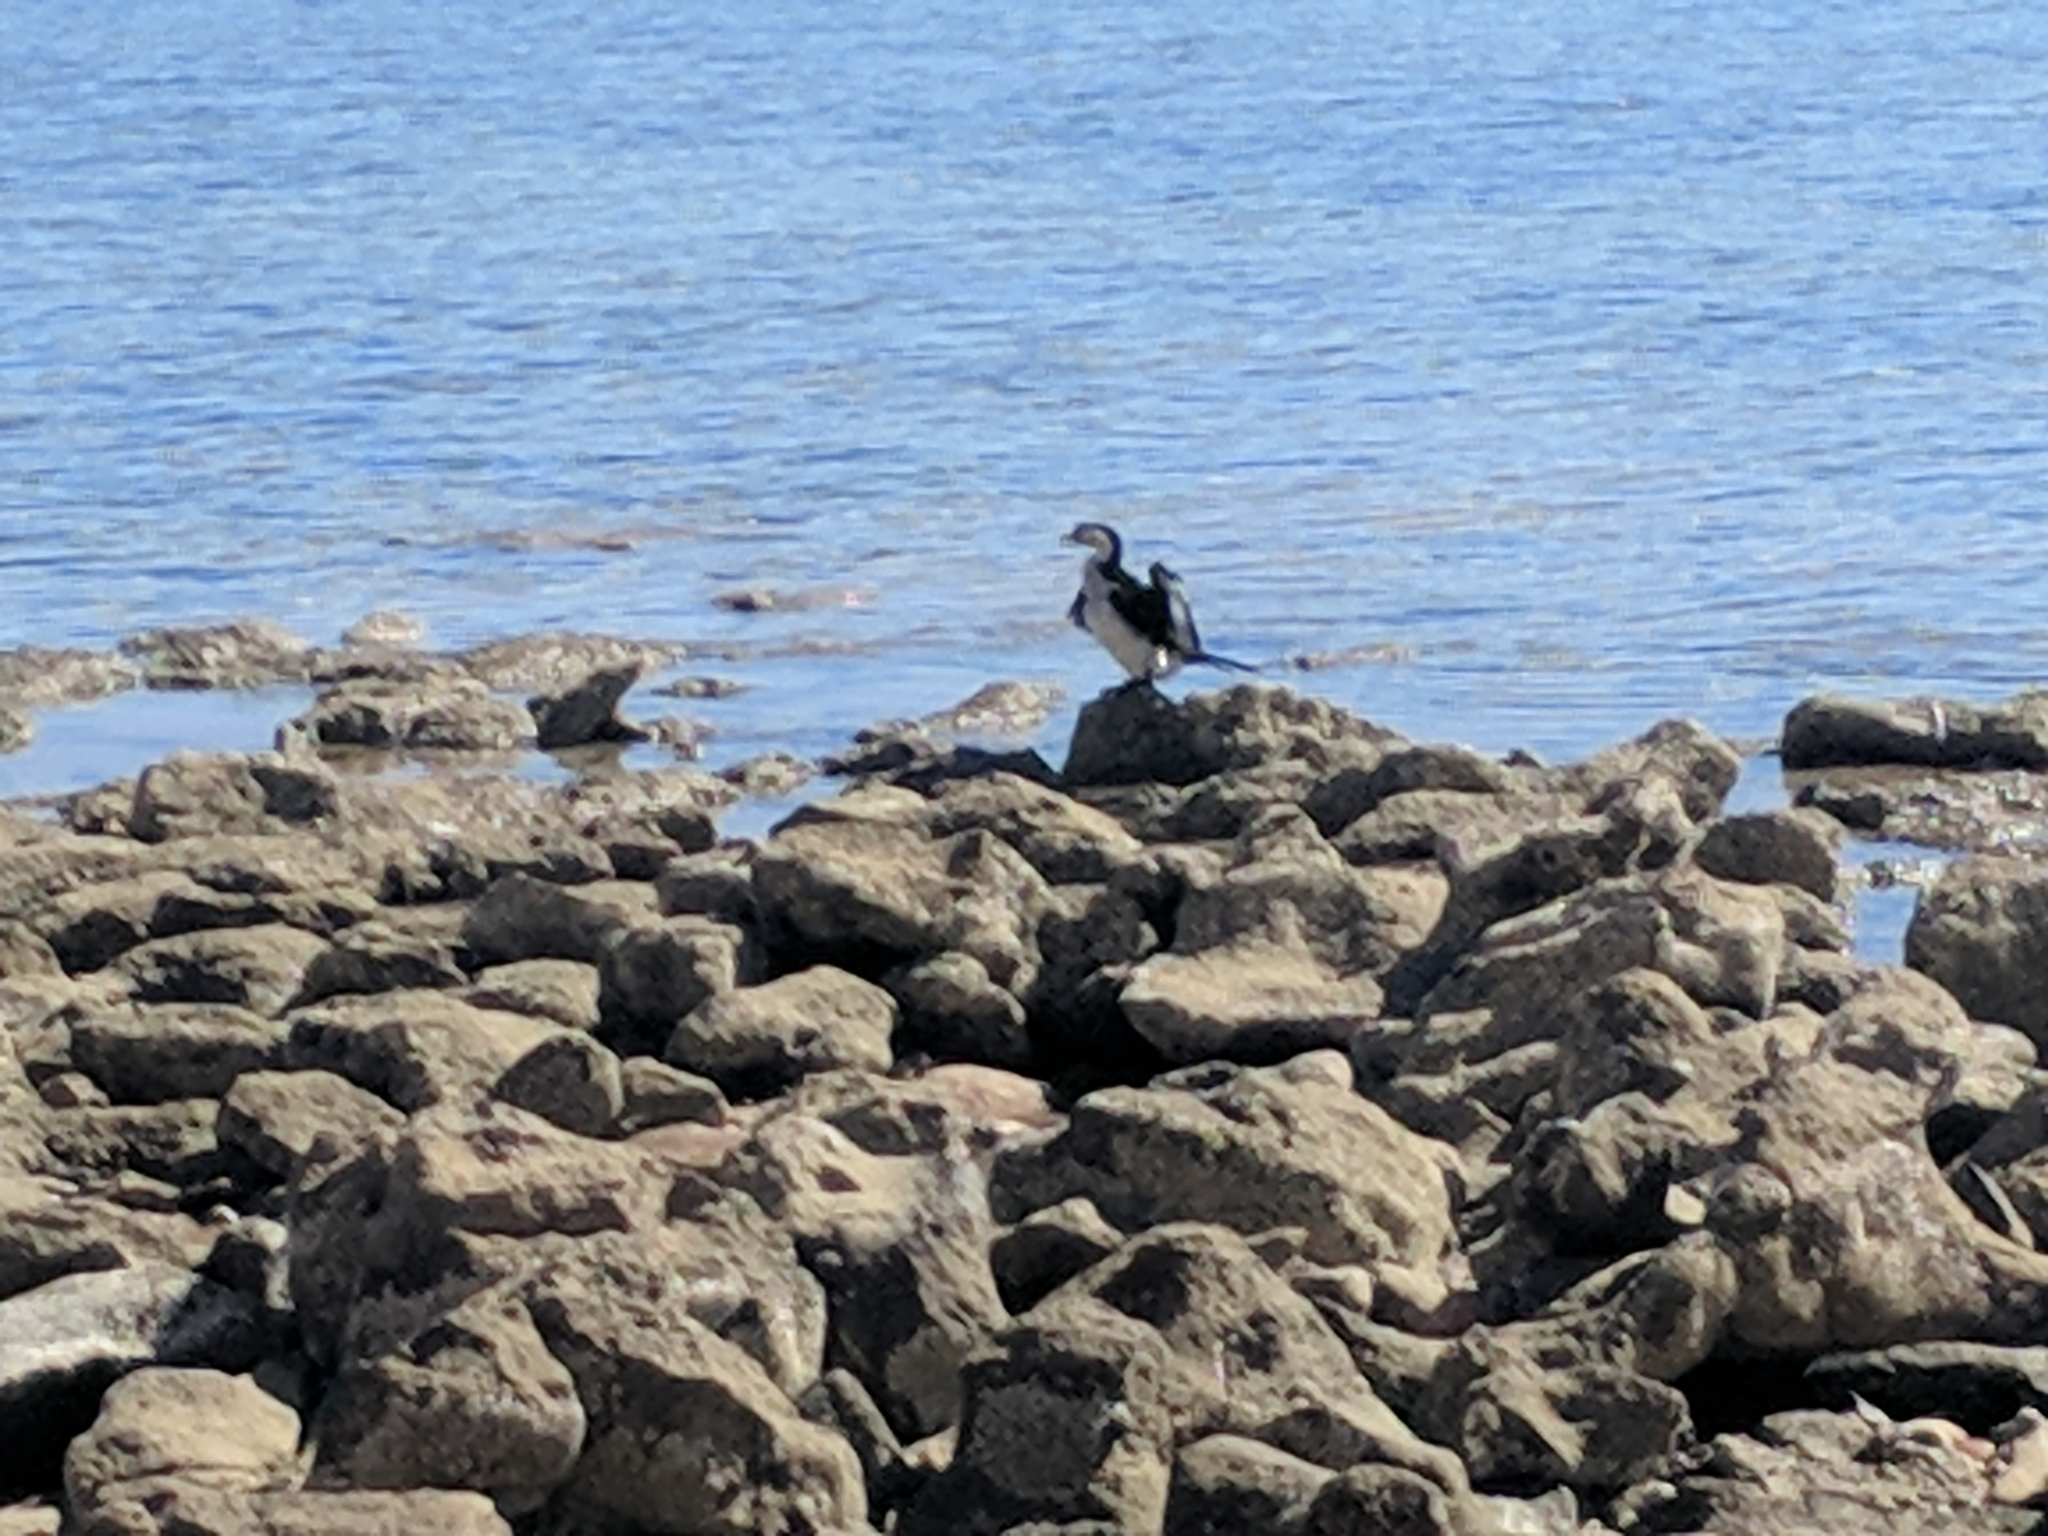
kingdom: Animalia
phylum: Chordata
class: Aves
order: Suliformes
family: Phalacrocoracidae
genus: Microcarbo
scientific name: Microcarbo melanoleucos
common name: Little pied cormorant
